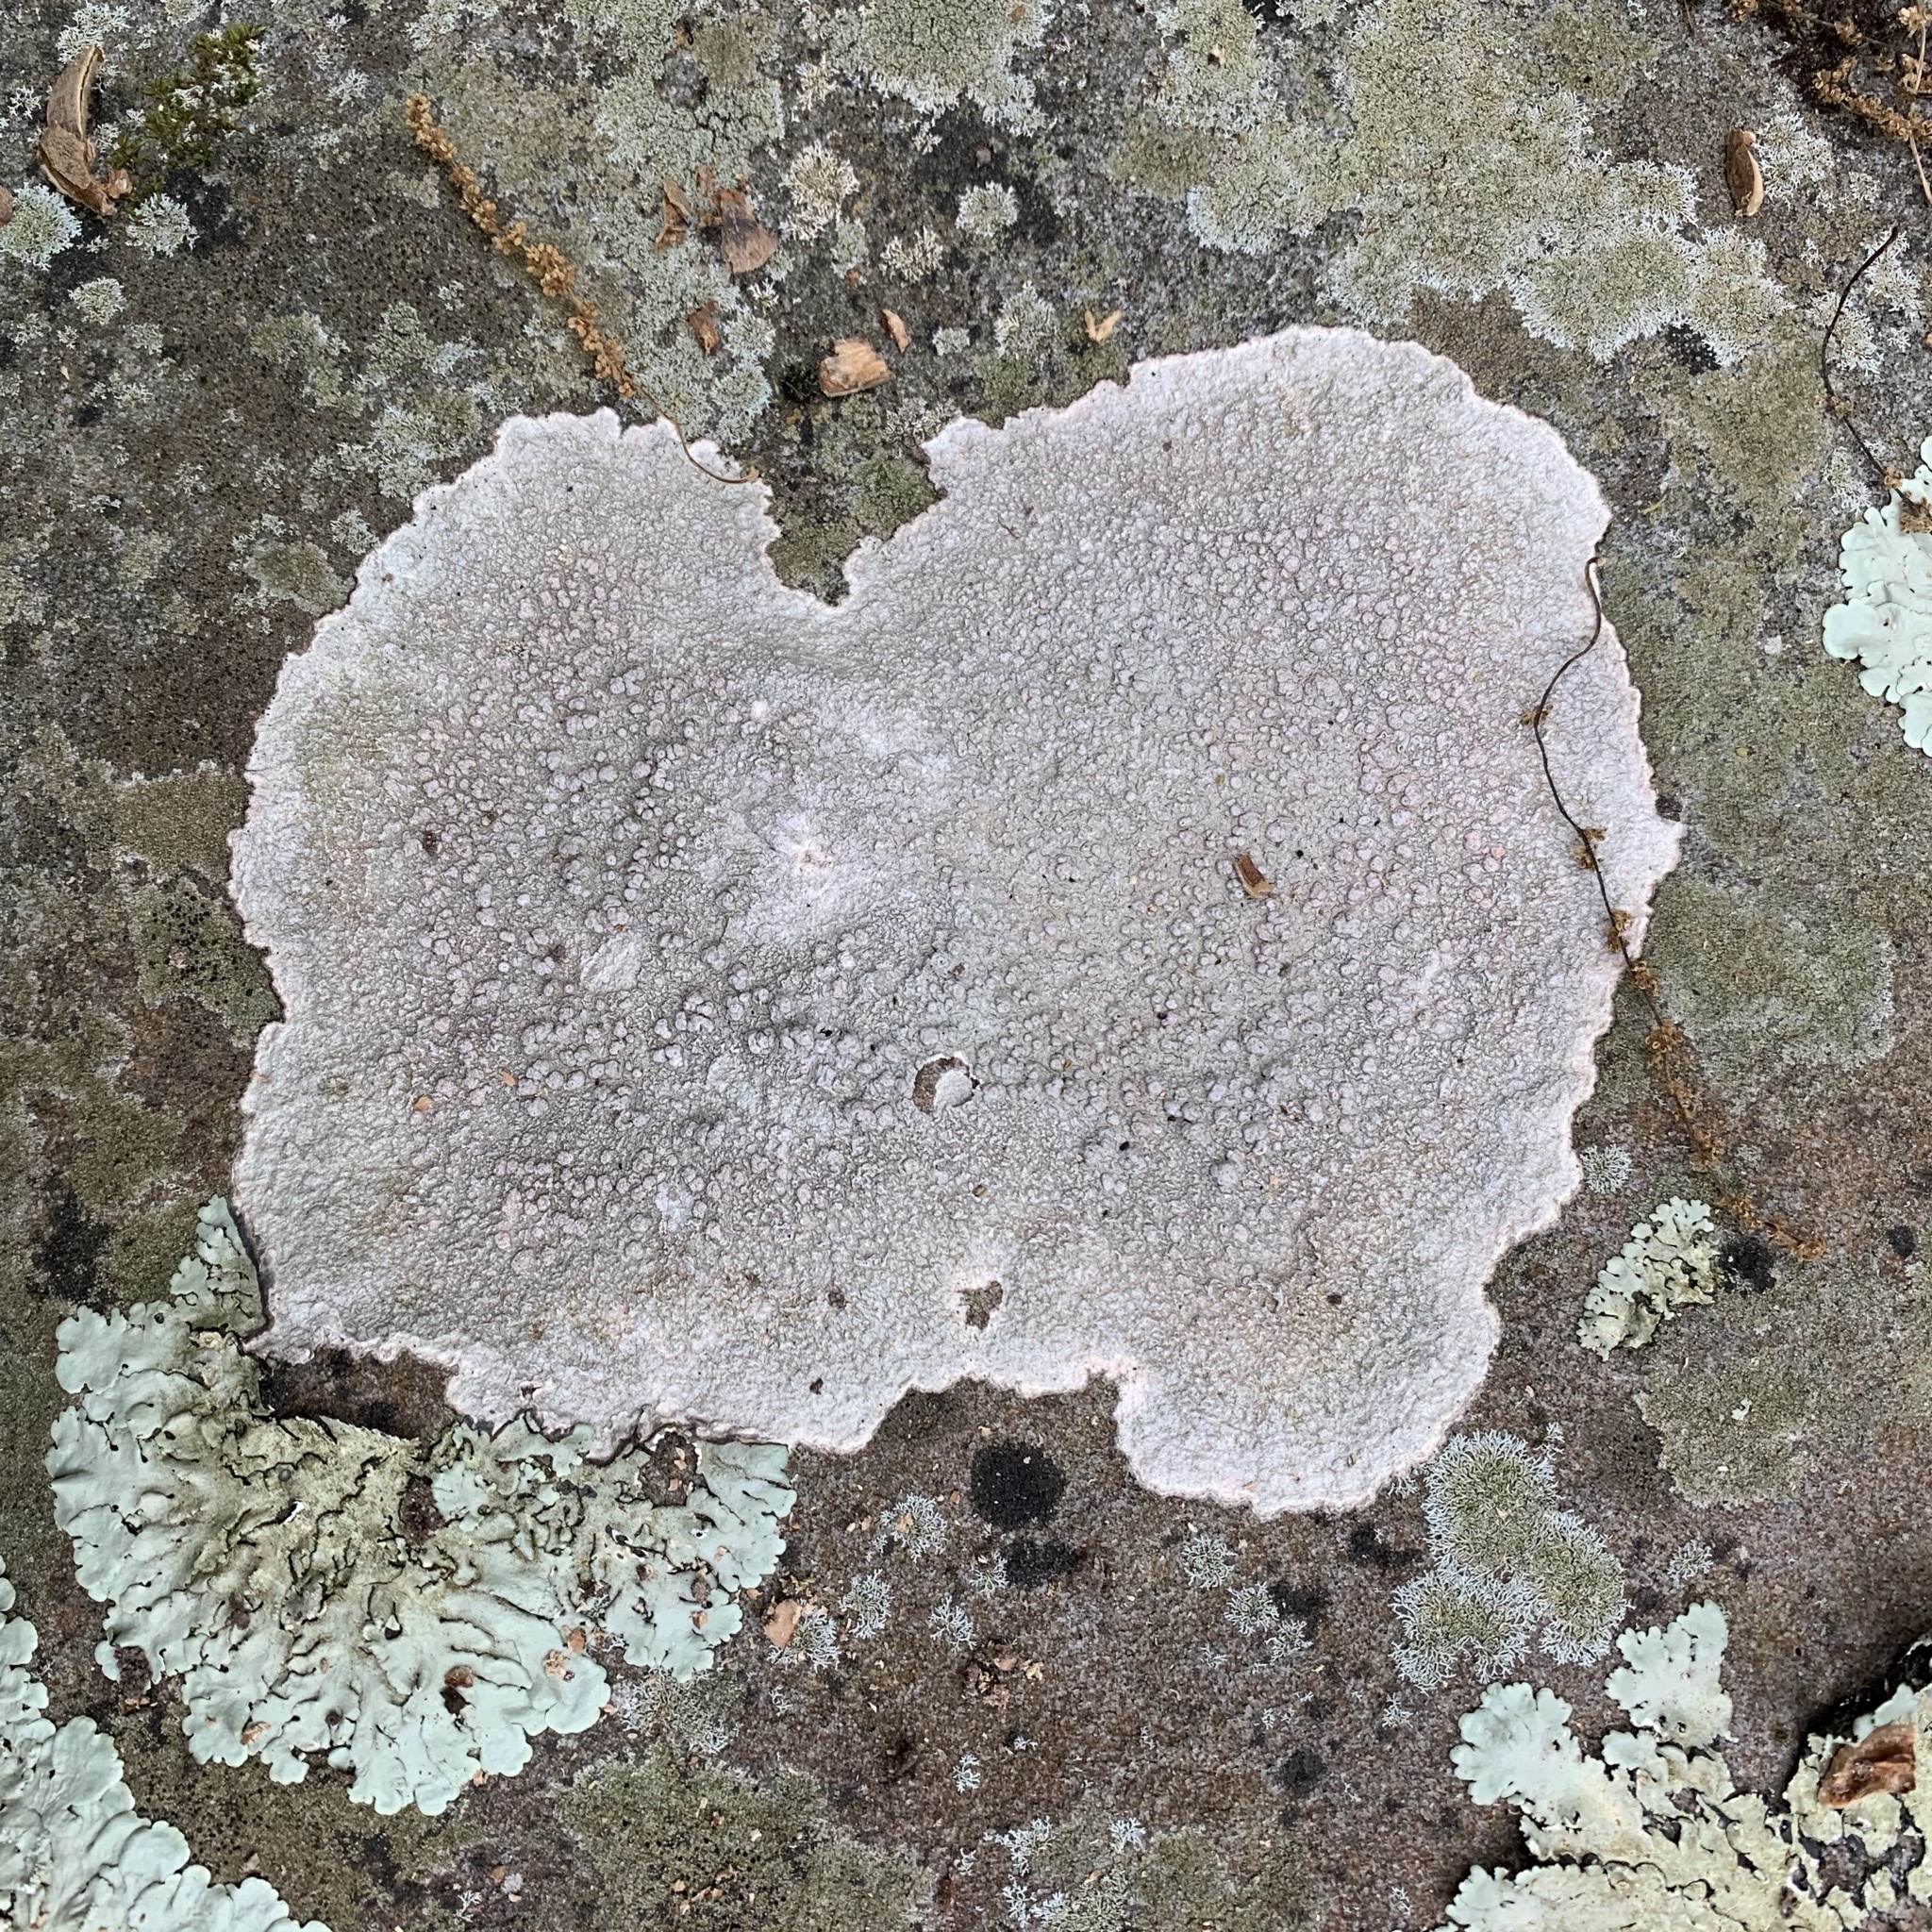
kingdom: Fungi
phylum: Ascomycota
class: Lecanoromycetes
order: Pertusariales
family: Pertusariaceae
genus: Pertusaria
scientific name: Pertusaria plittiana
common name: Rock wart lichen
